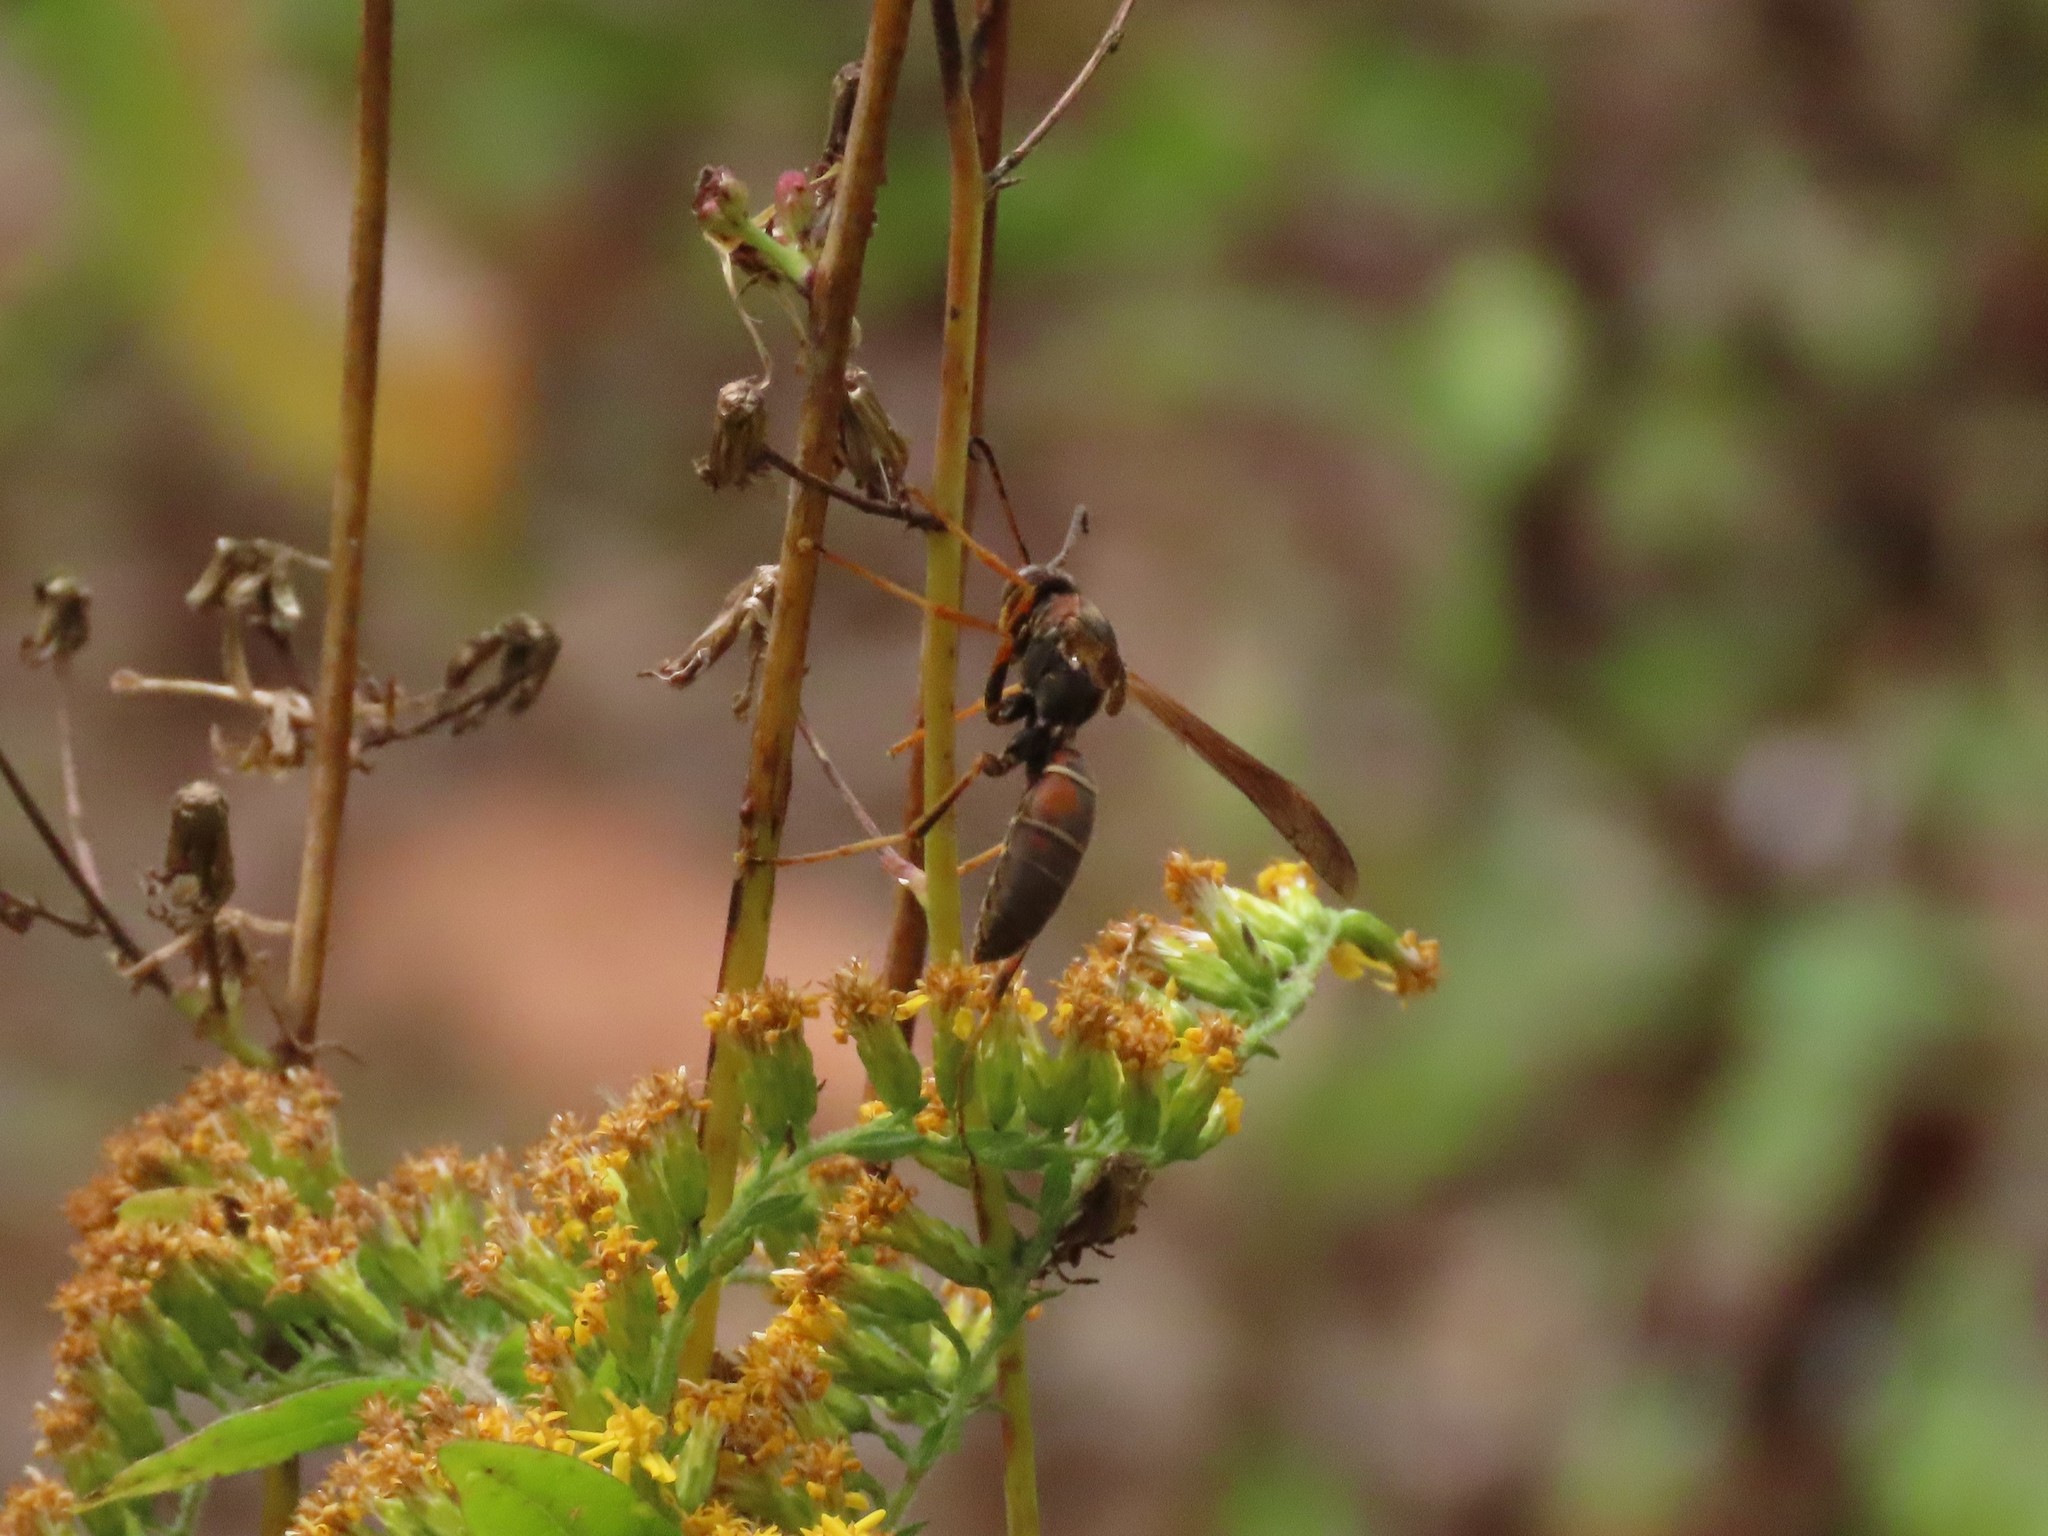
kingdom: Animalia
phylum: Arthropoda
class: Insecta
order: Hymenoptera
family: Eumenidae
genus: Polistes
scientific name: Polistes fuscatus
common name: Dark paper wasp
